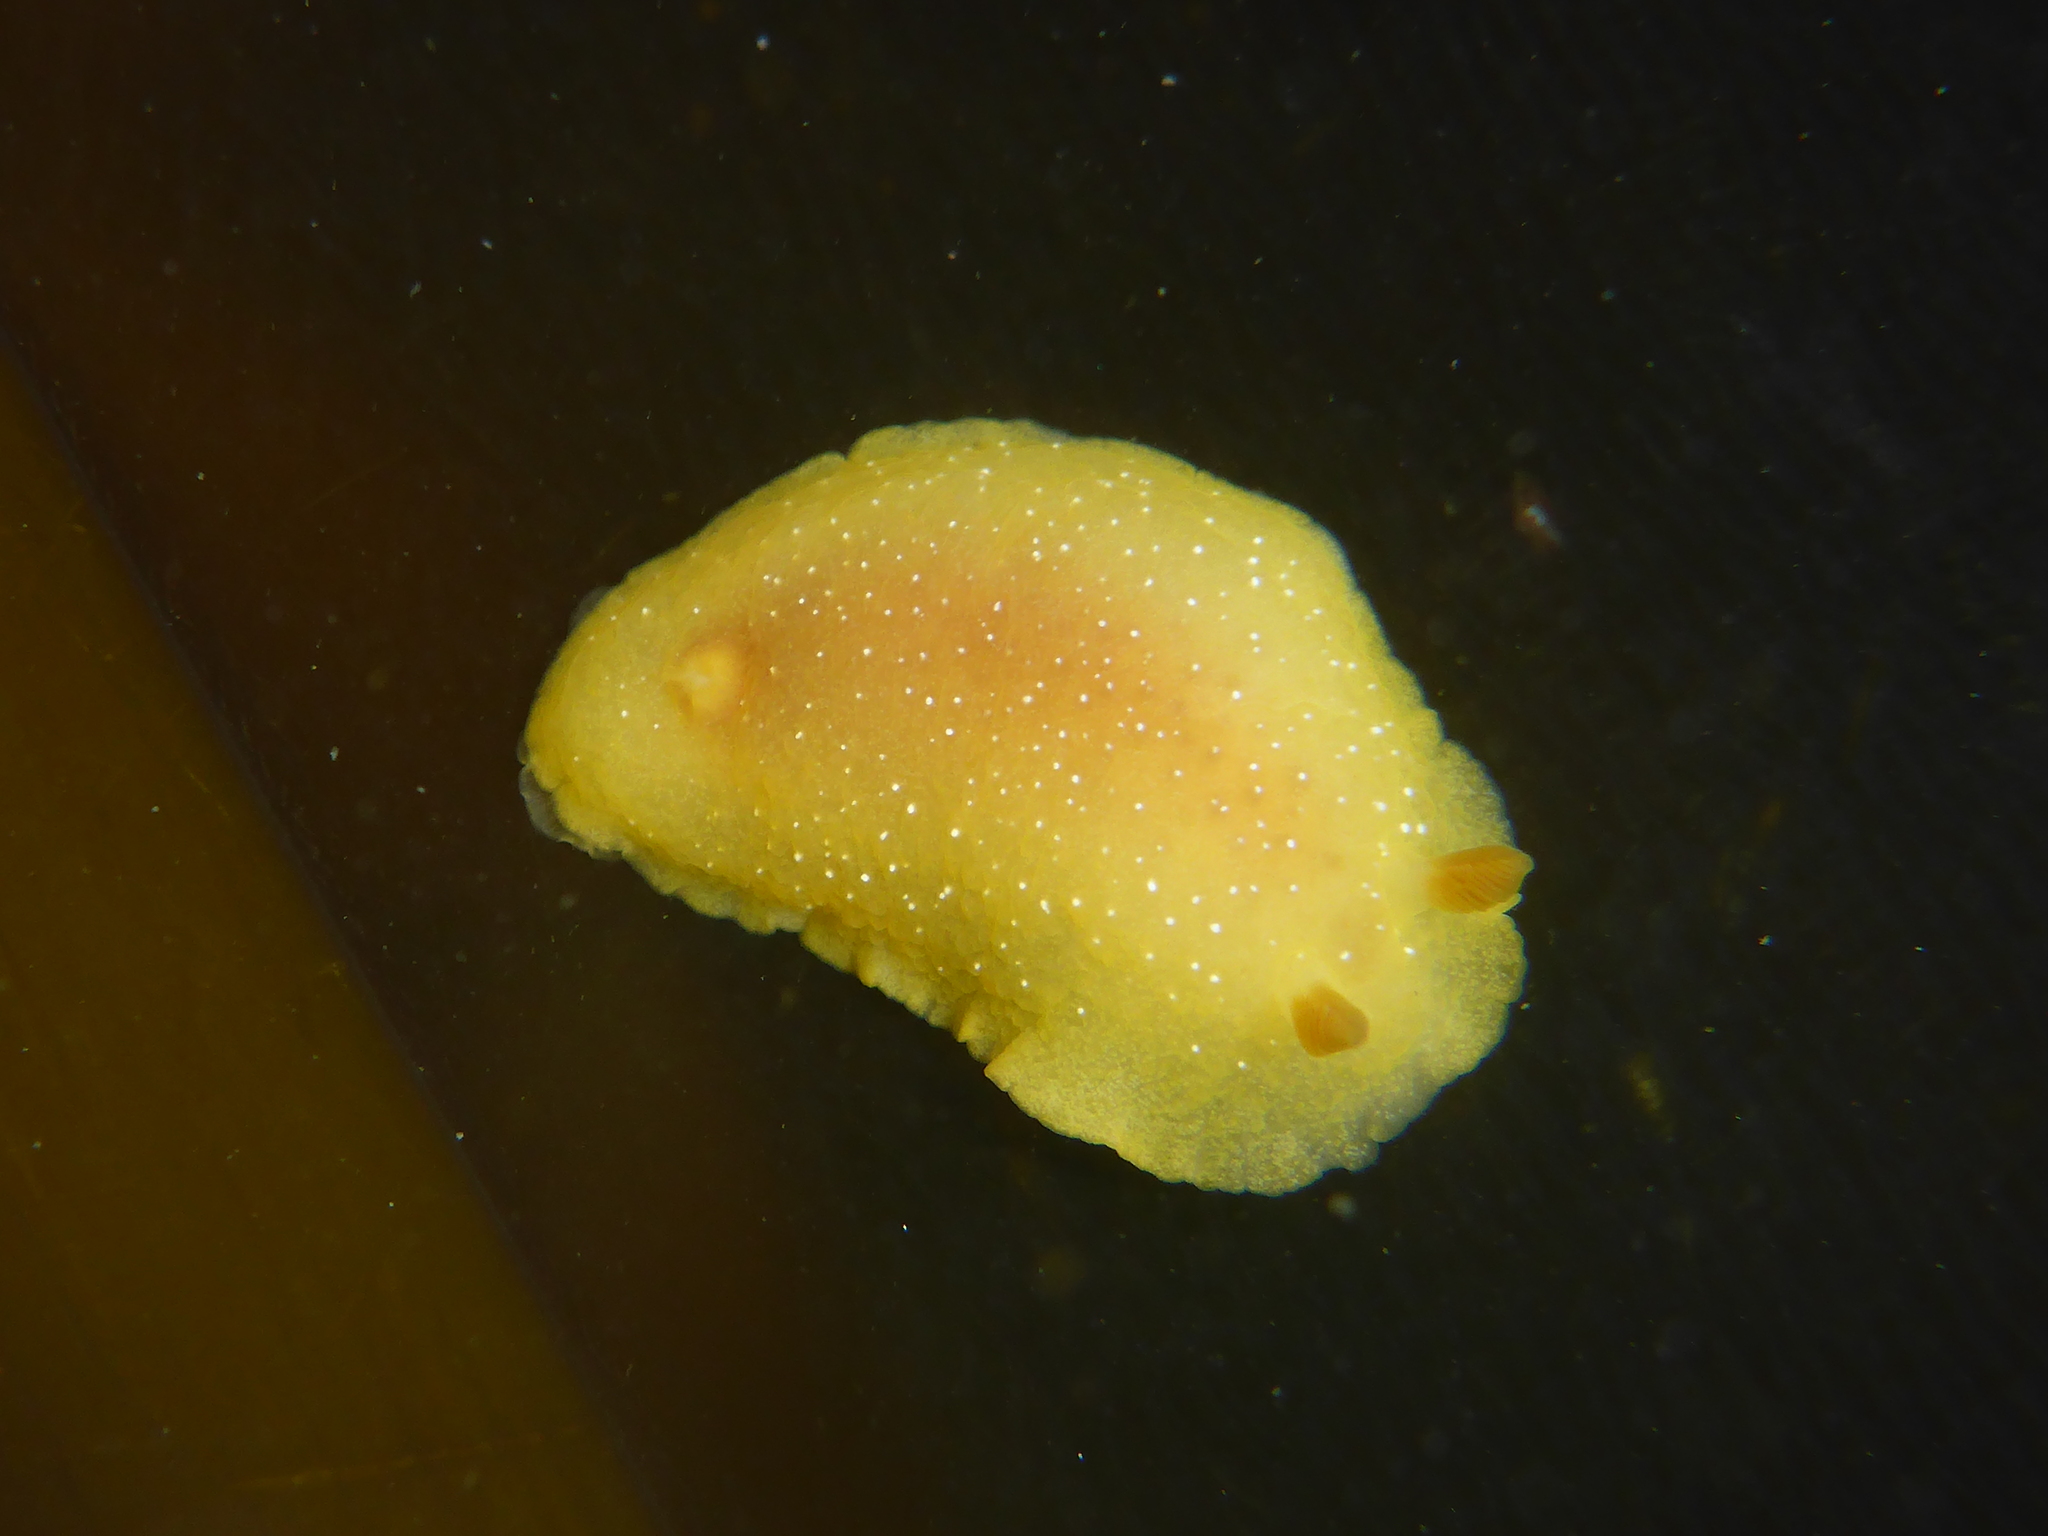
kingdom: Animalia
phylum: Mollusca
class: Gastropoda
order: Nudibranchia
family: Dendrodorididae
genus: Doriopsilla
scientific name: Doriopsilla fulva
